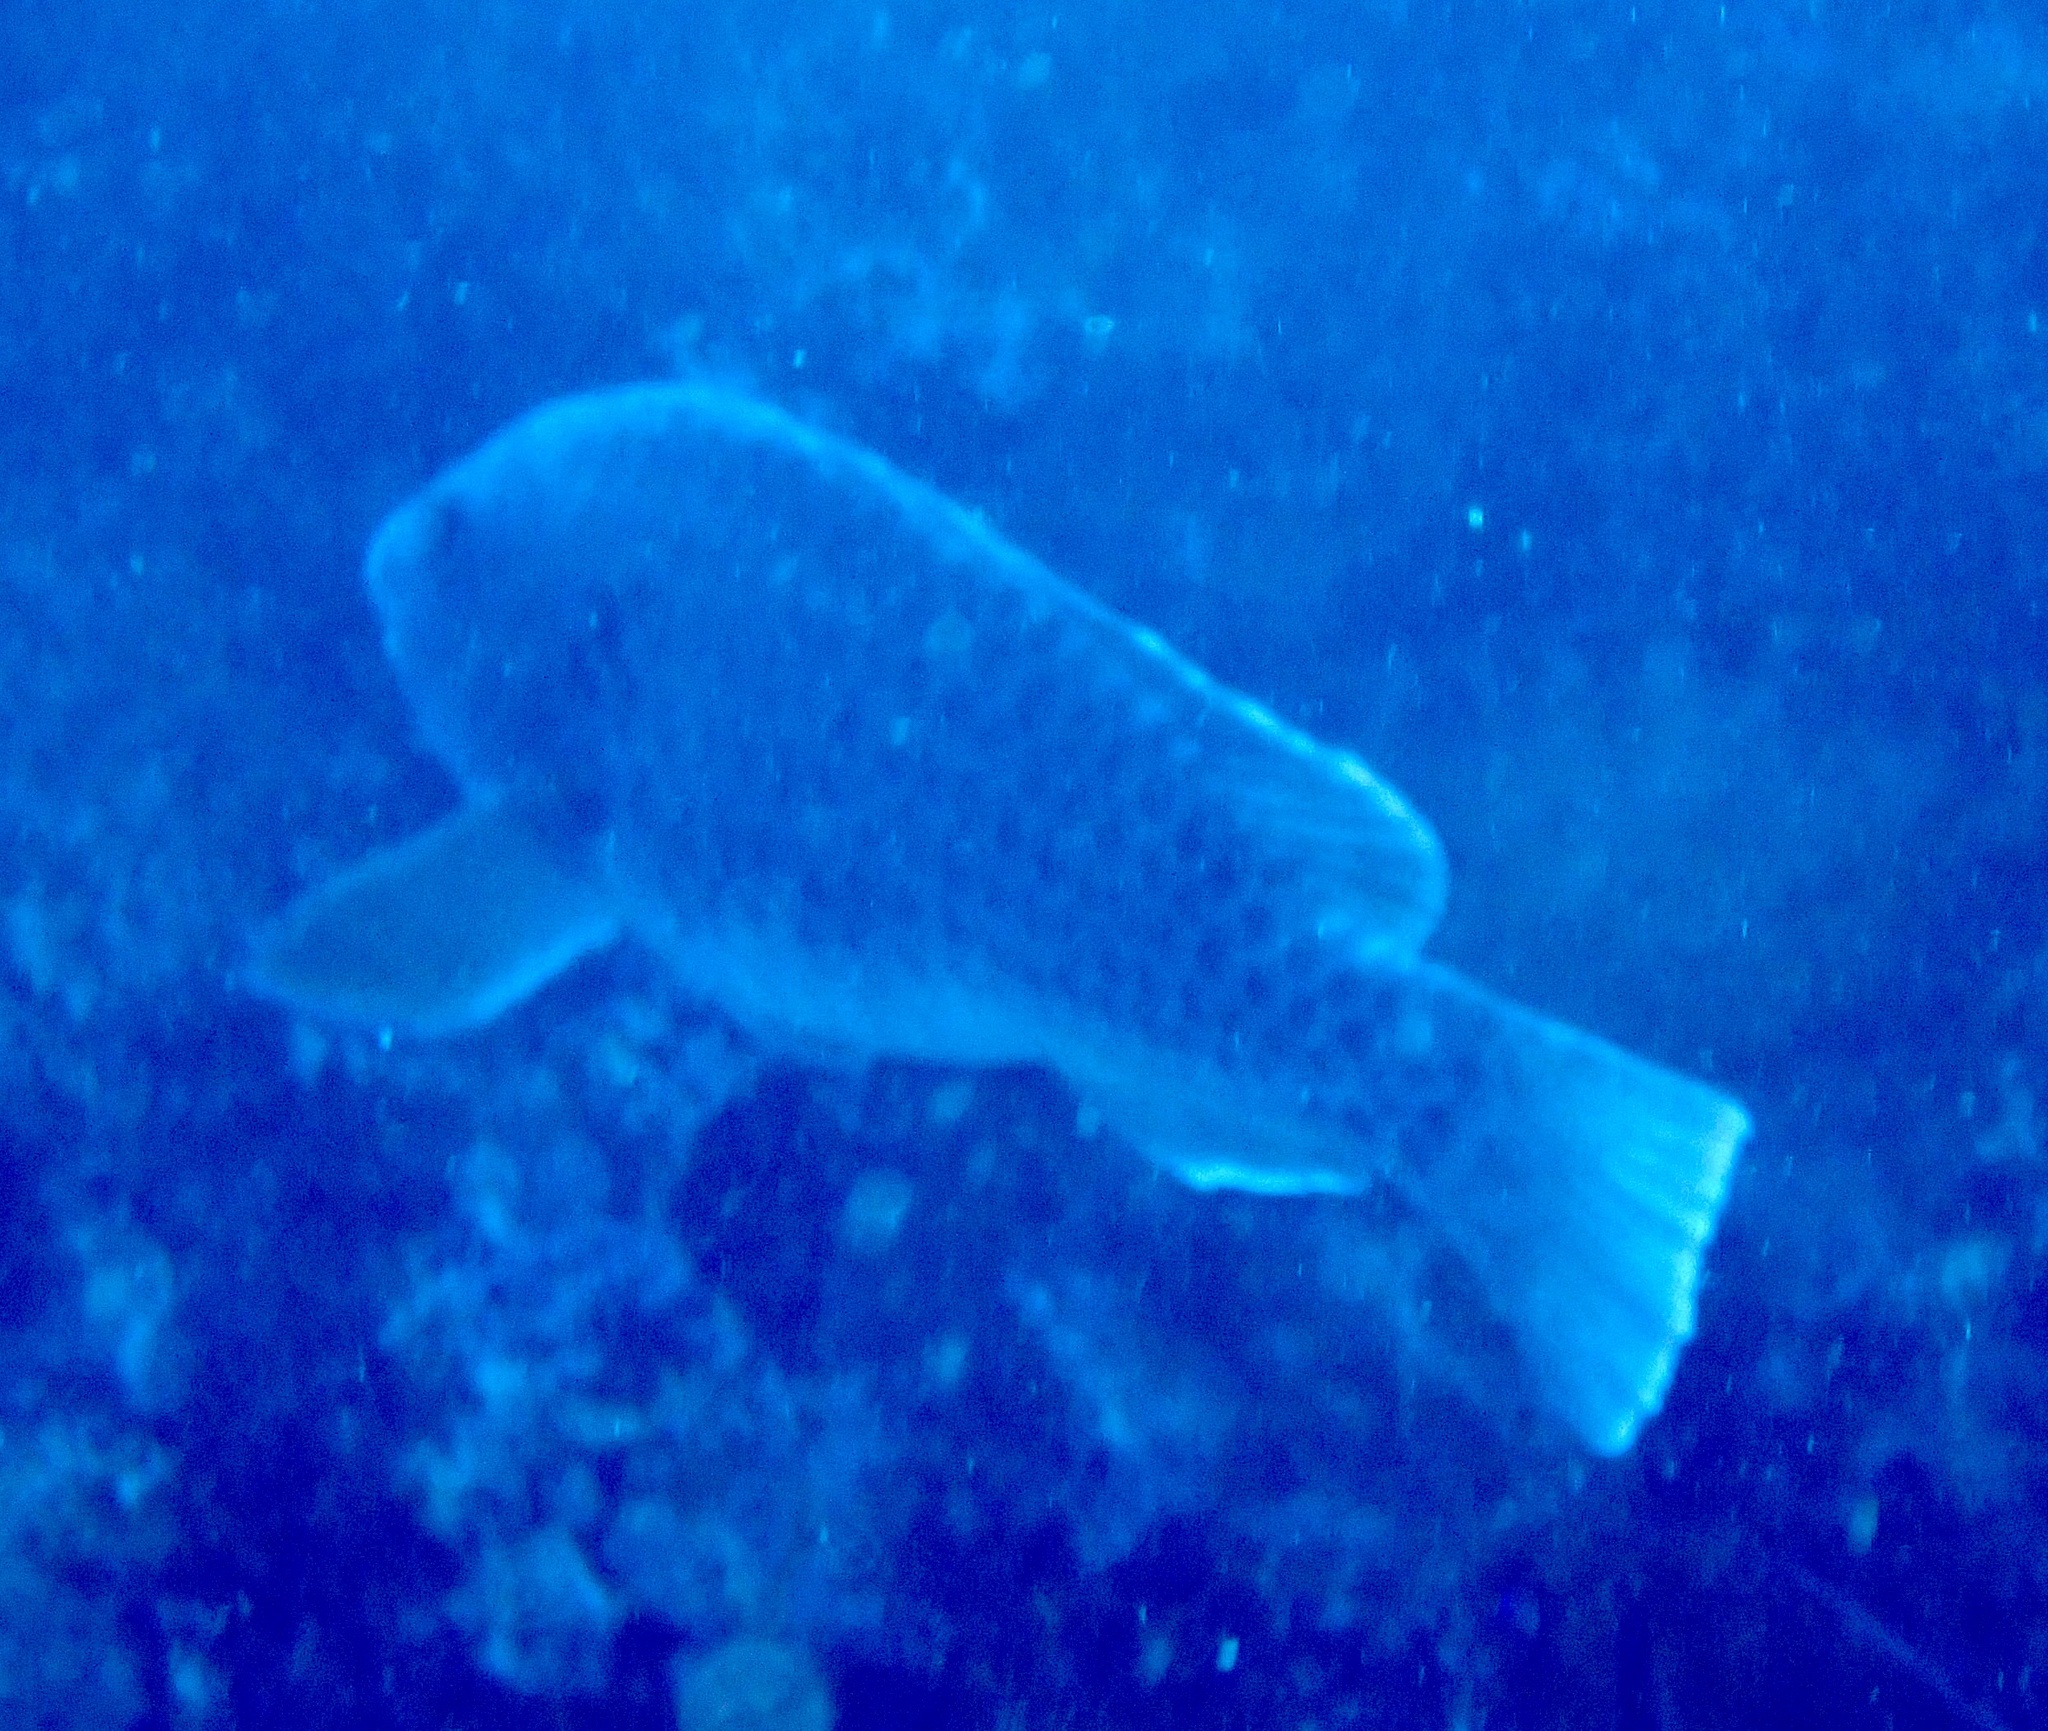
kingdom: Animalia
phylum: Chordata
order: Perciformes
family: Scaridae
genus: Sparisoma
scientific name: Sparisoma cretense
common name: Parrotfish
